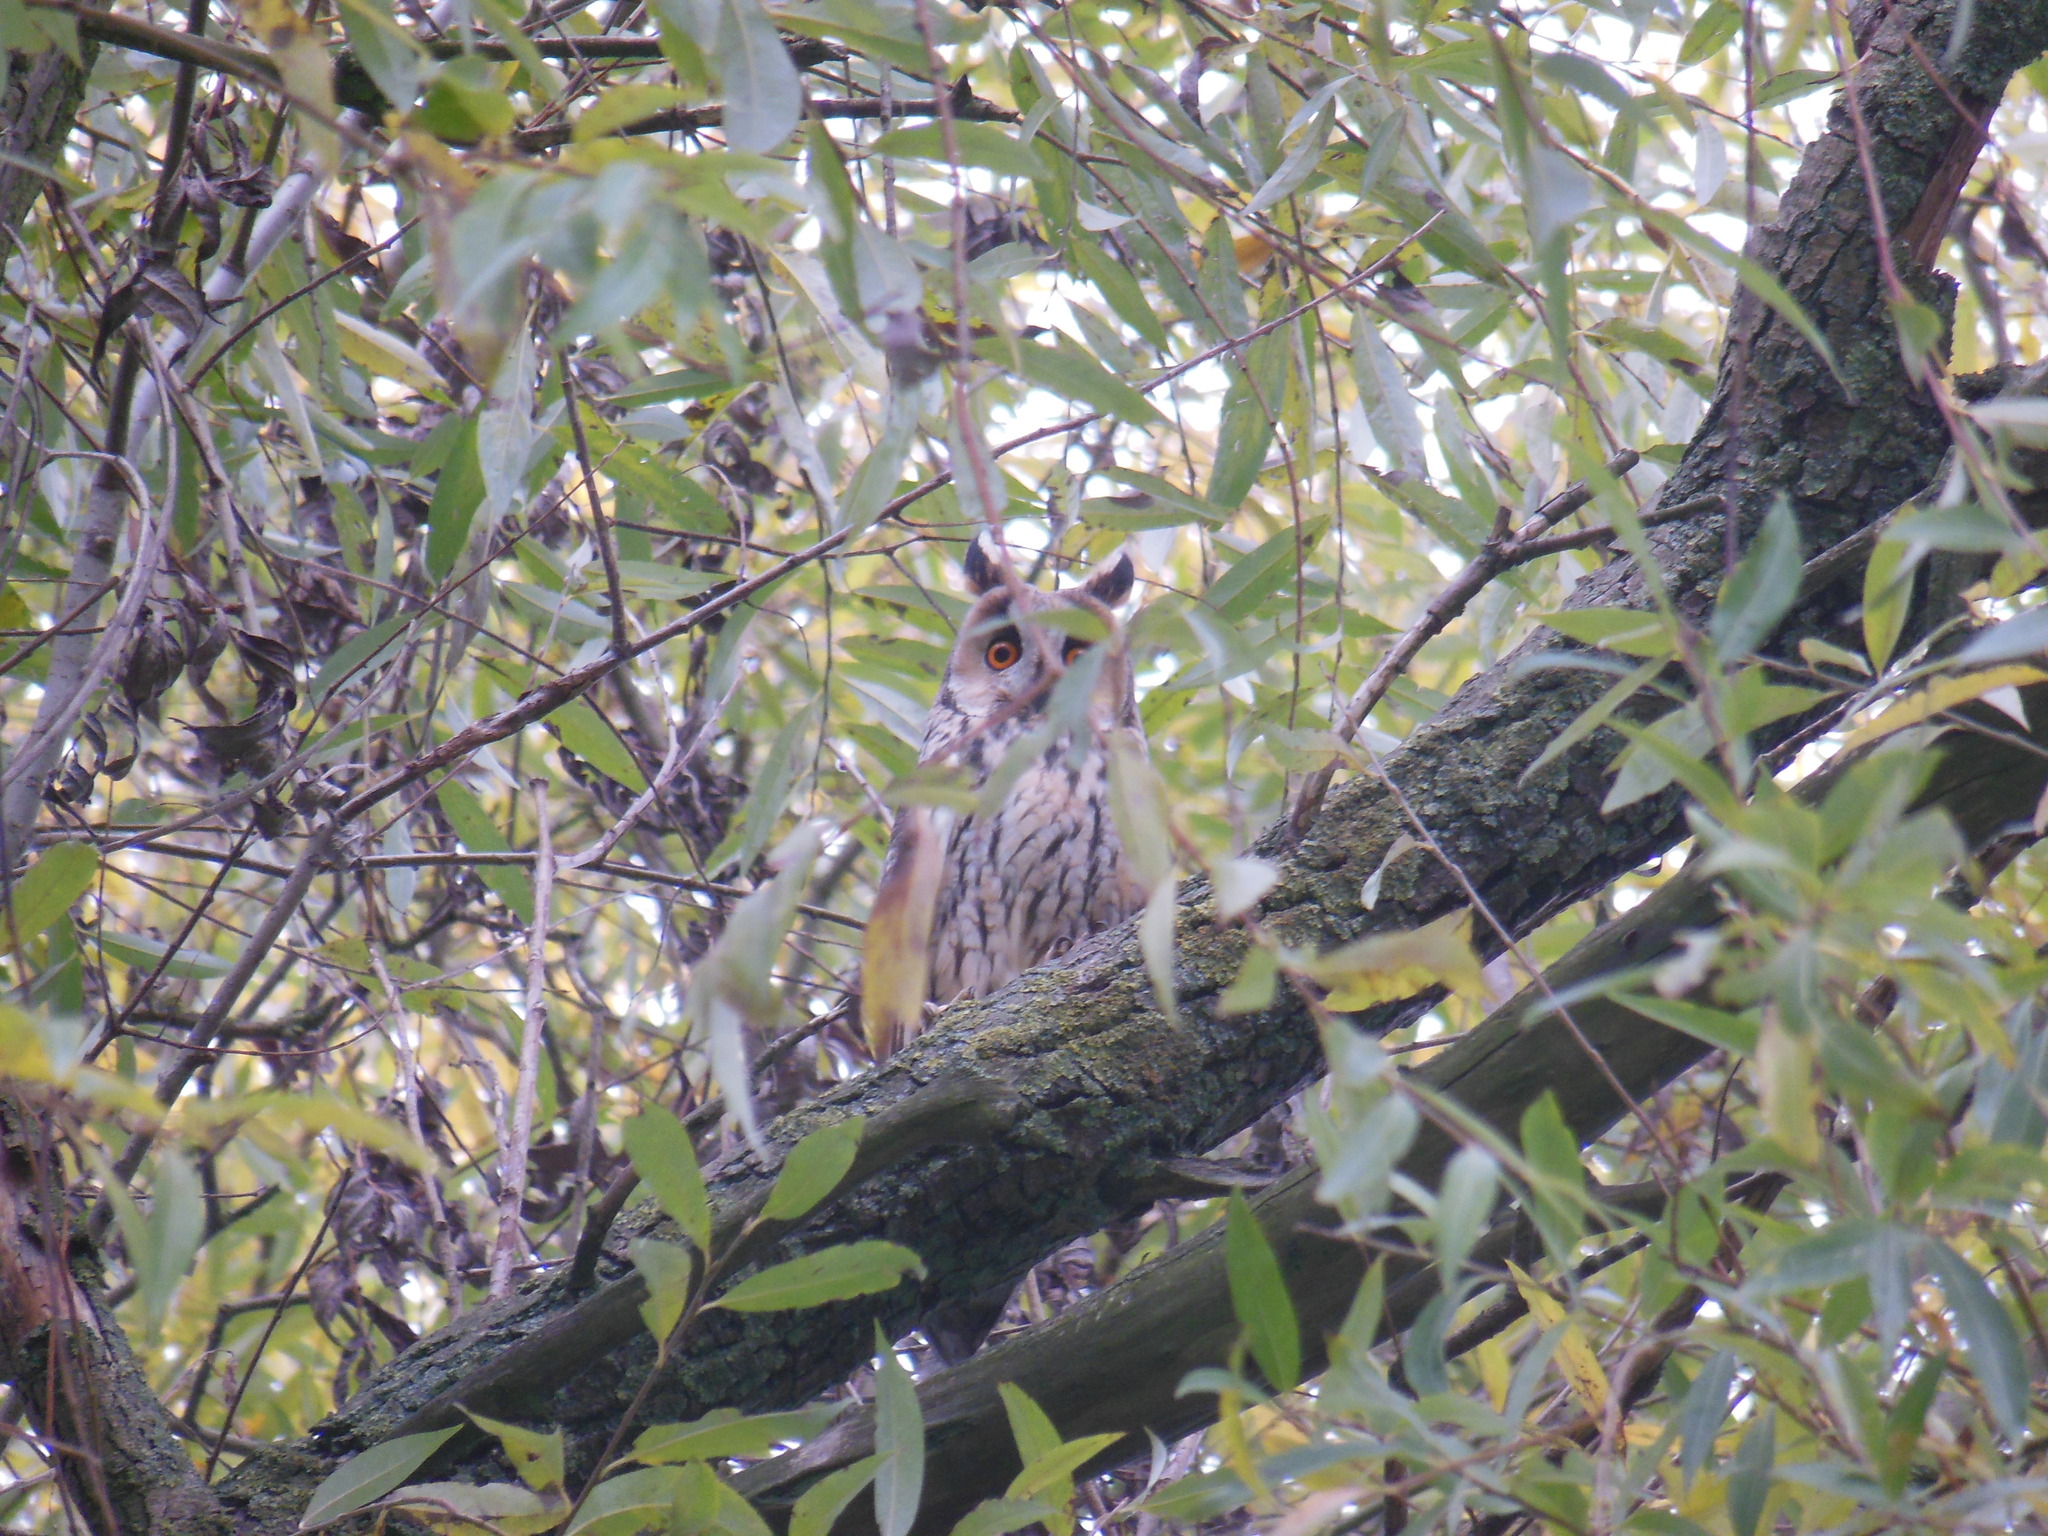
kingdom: Animalia
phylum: Chordata
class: Aves
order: Strigiformes
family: Strigidae
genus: Asio
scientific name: Asio otus
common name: Long-eared owl
